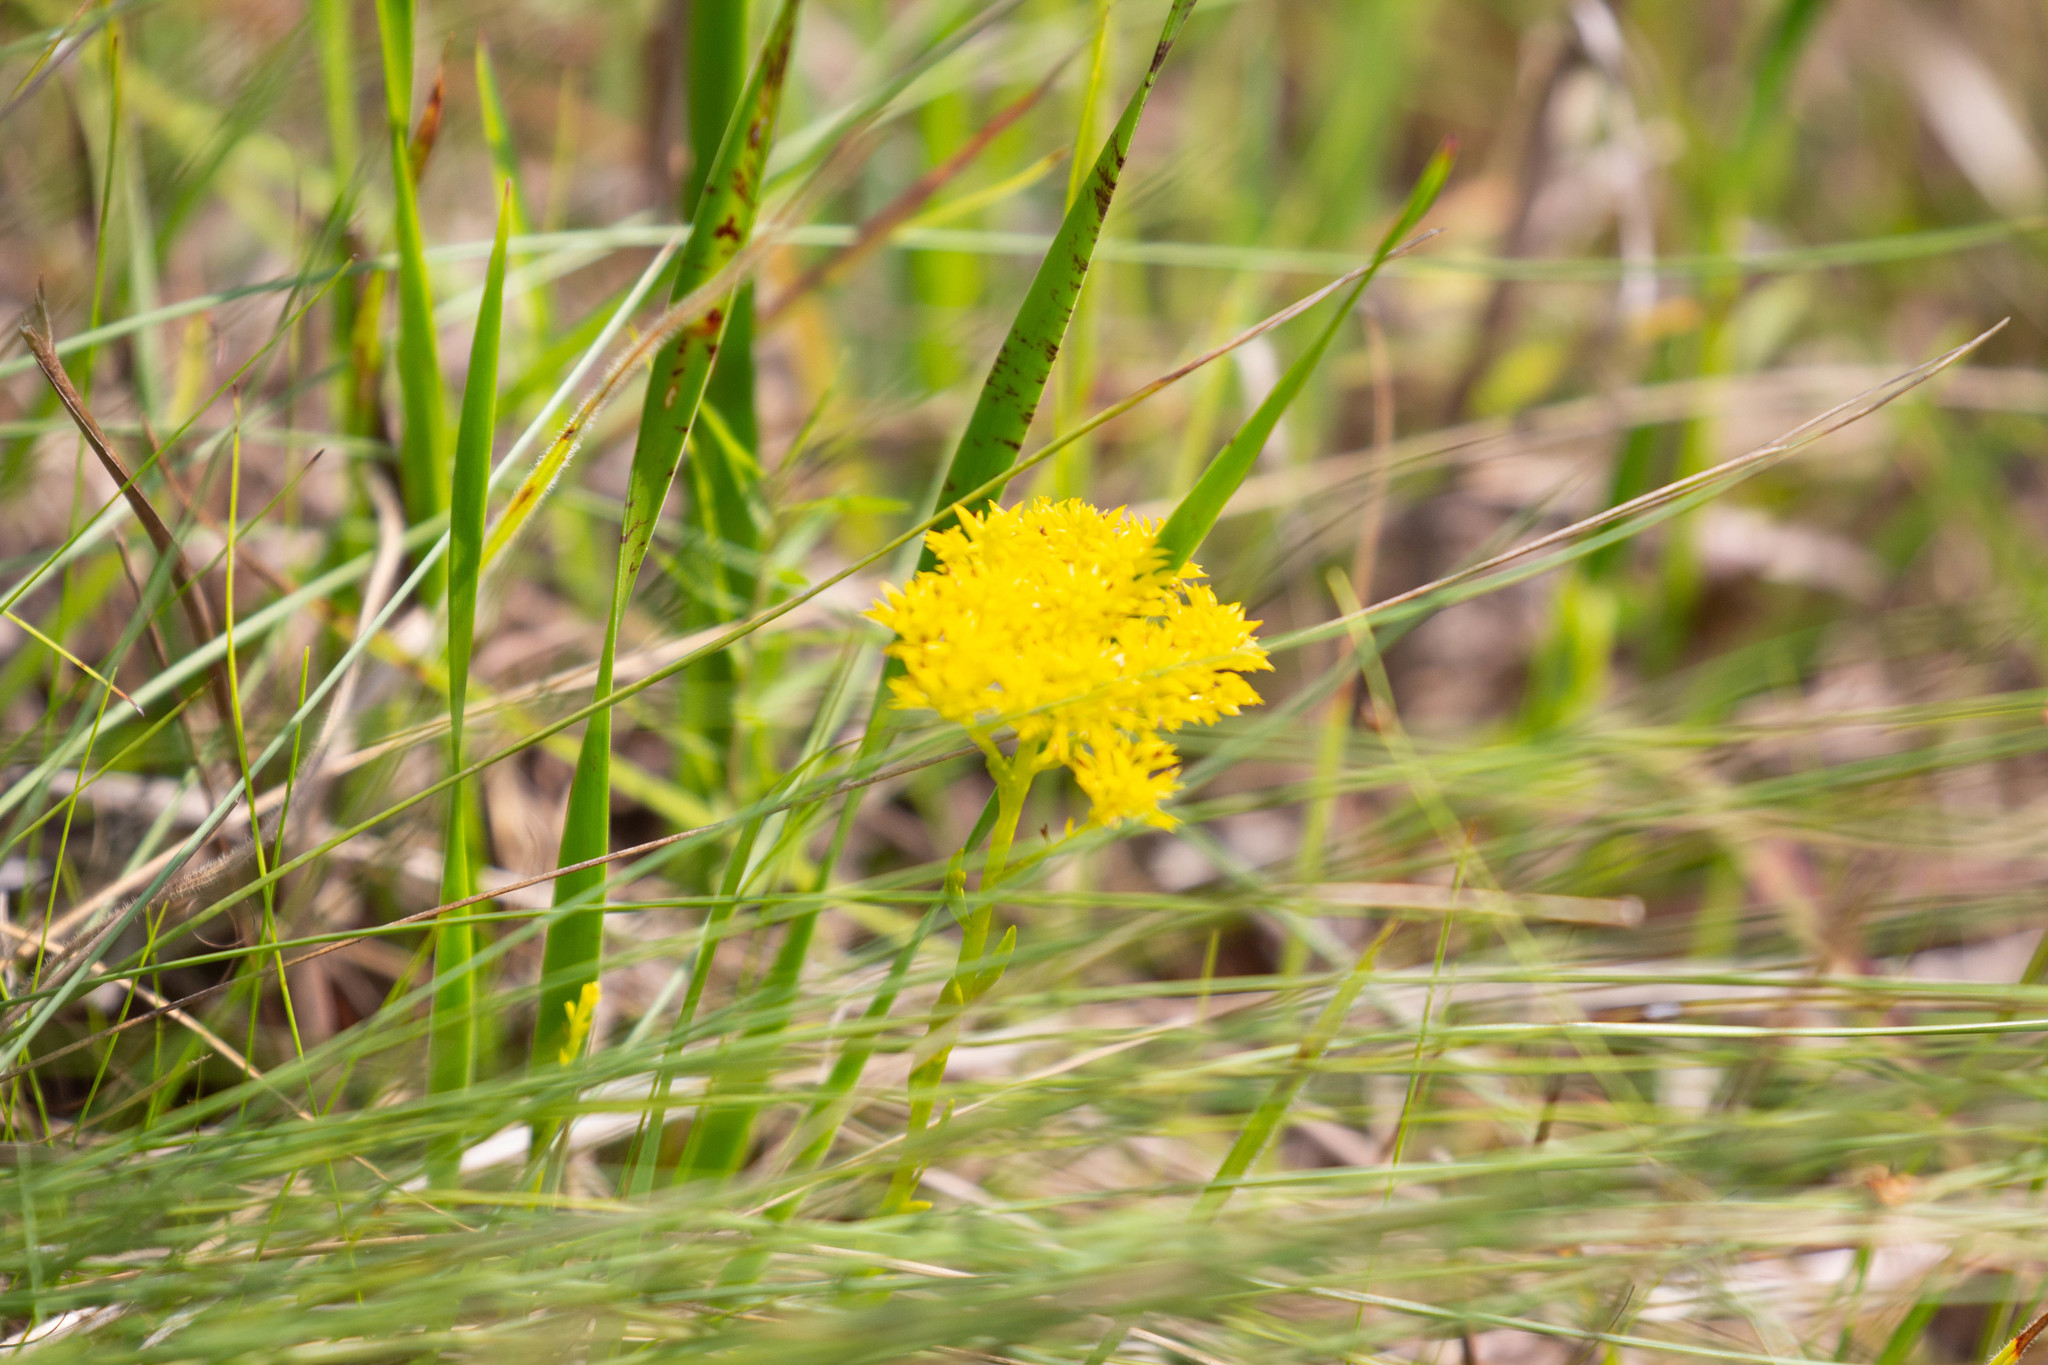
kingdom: Plantae
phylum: Tracheophyta
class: Magnoliopsida
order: Fabales
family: Polygalaceae
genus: Polygala
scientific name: Polygala ramosa
